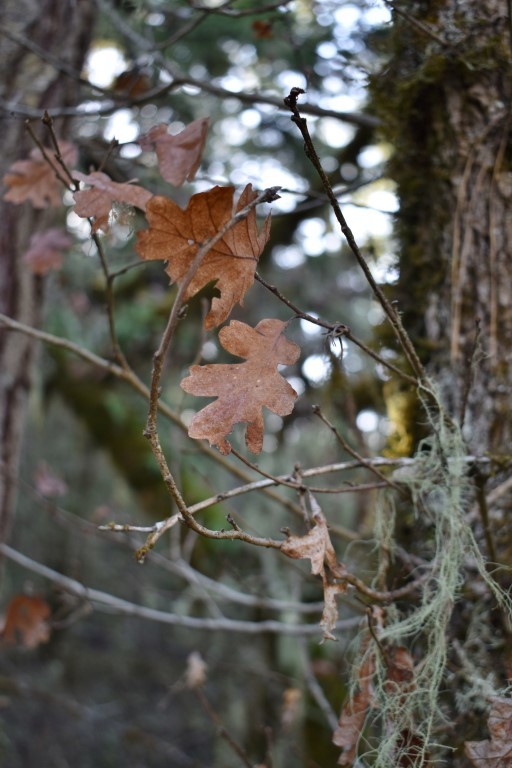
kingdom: Plantae
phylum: Tracheophyta
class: Magnoliopsida
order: Fagales
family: Fagaceae
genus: Quercus
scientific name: Quercus garryana
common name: Garry oak
